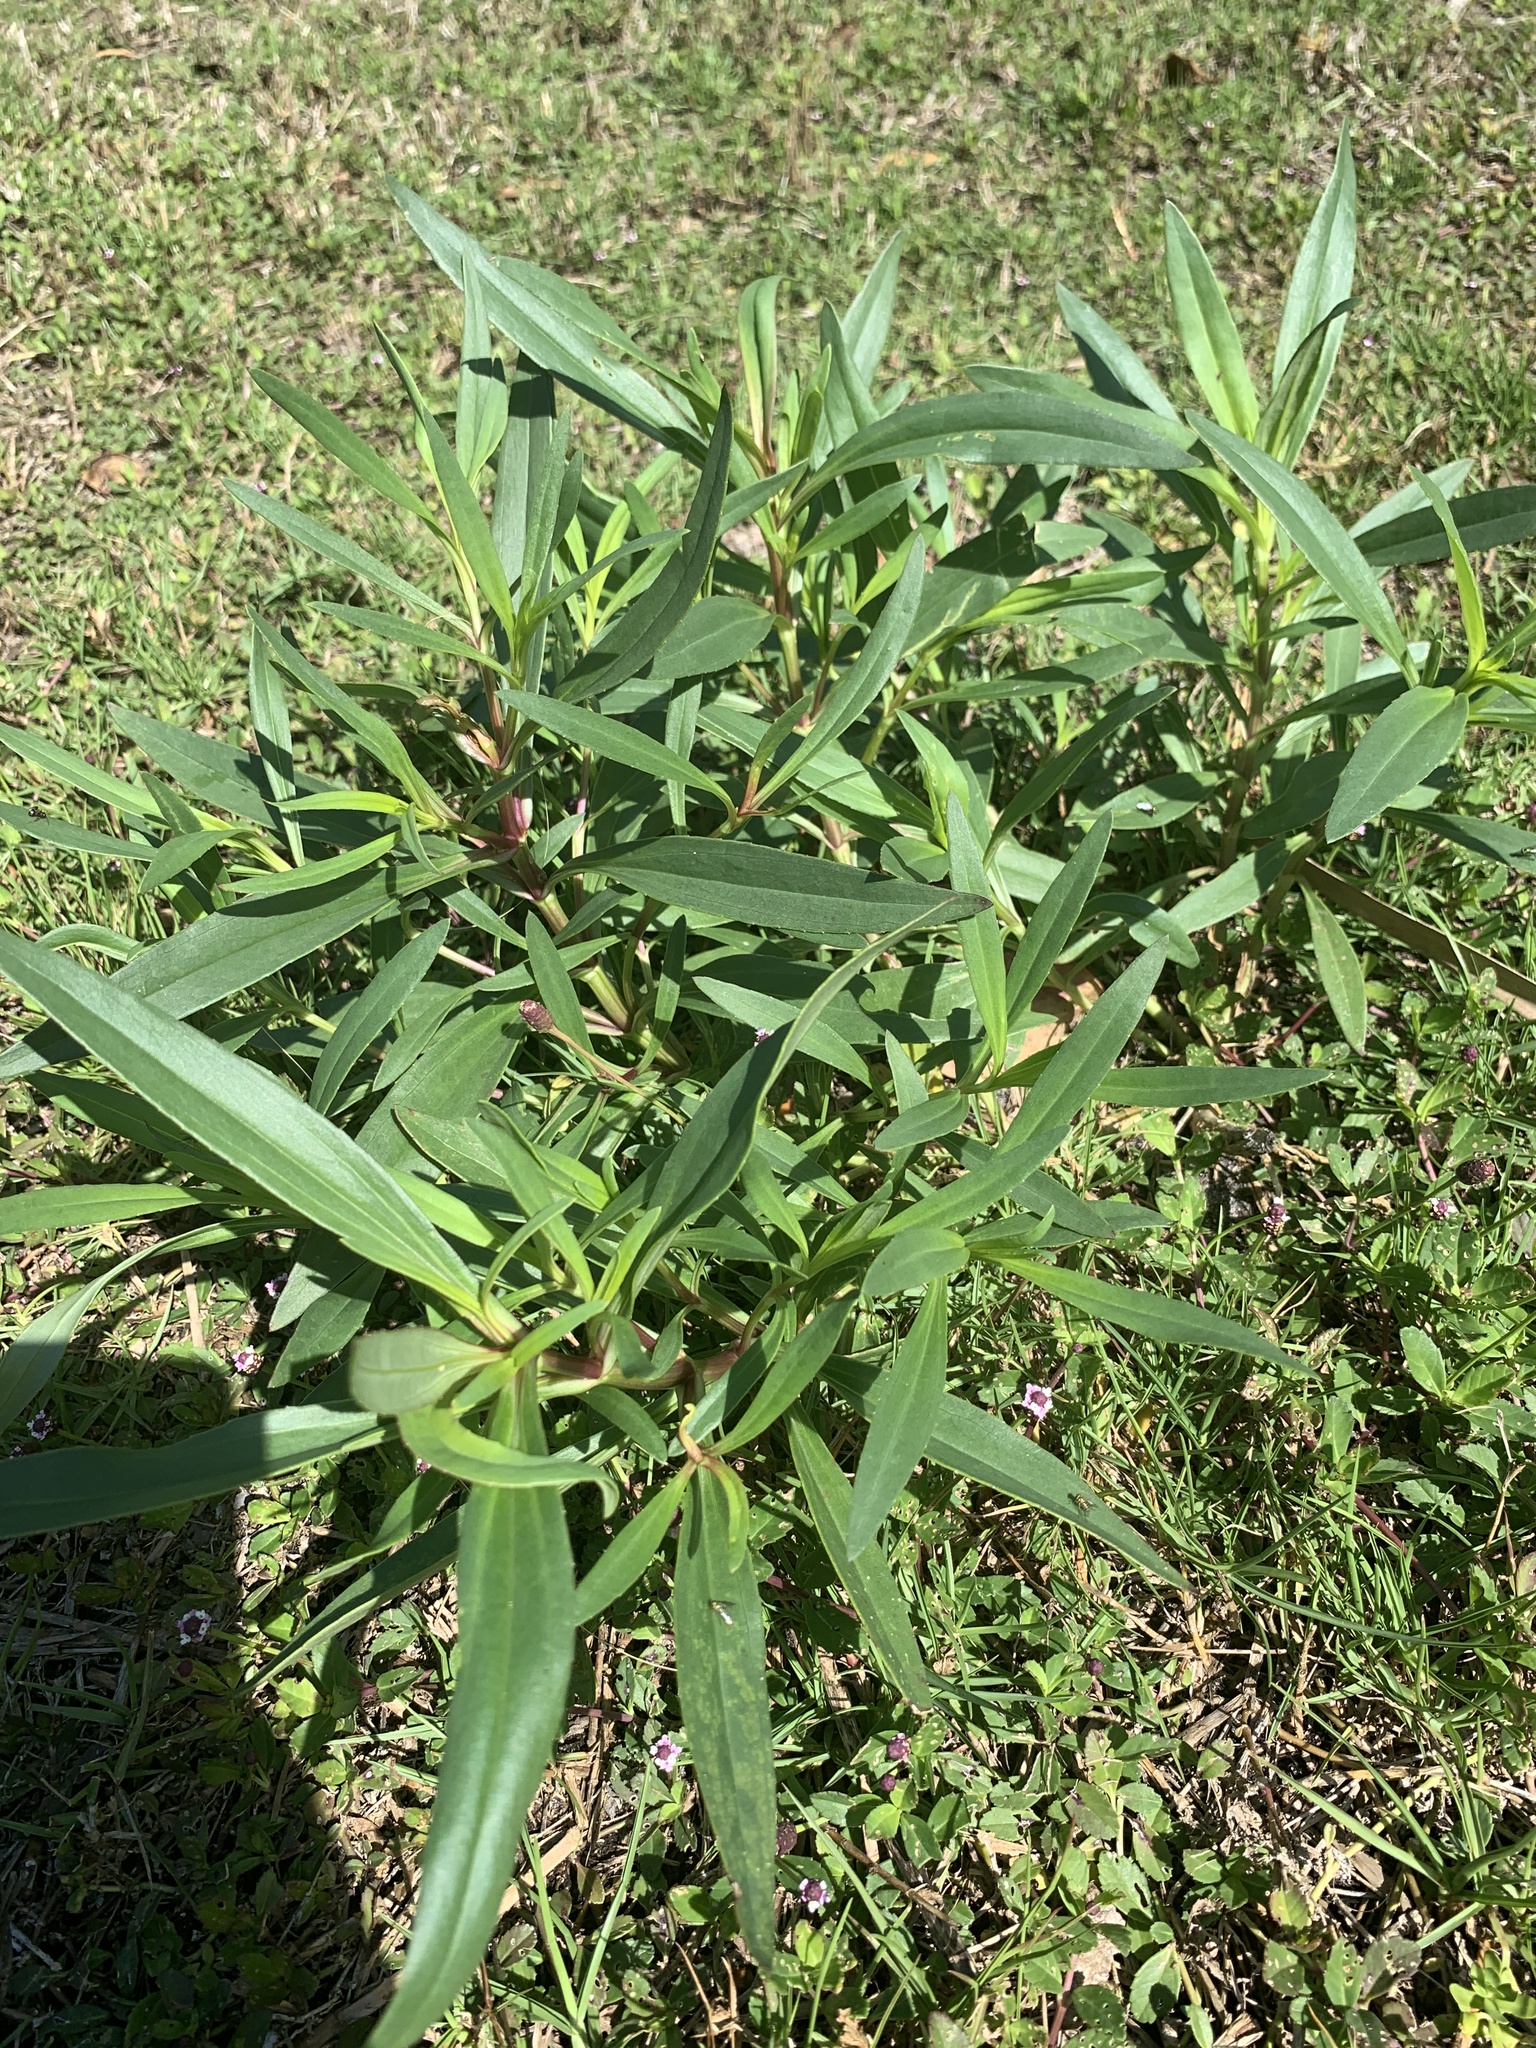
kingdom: Plantae
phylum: Tracheophyta
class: Magnoliopsida
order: Asterales
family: Asteraceae
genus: Flaveria
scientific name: Flaveria linearis
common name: Yellowtop
